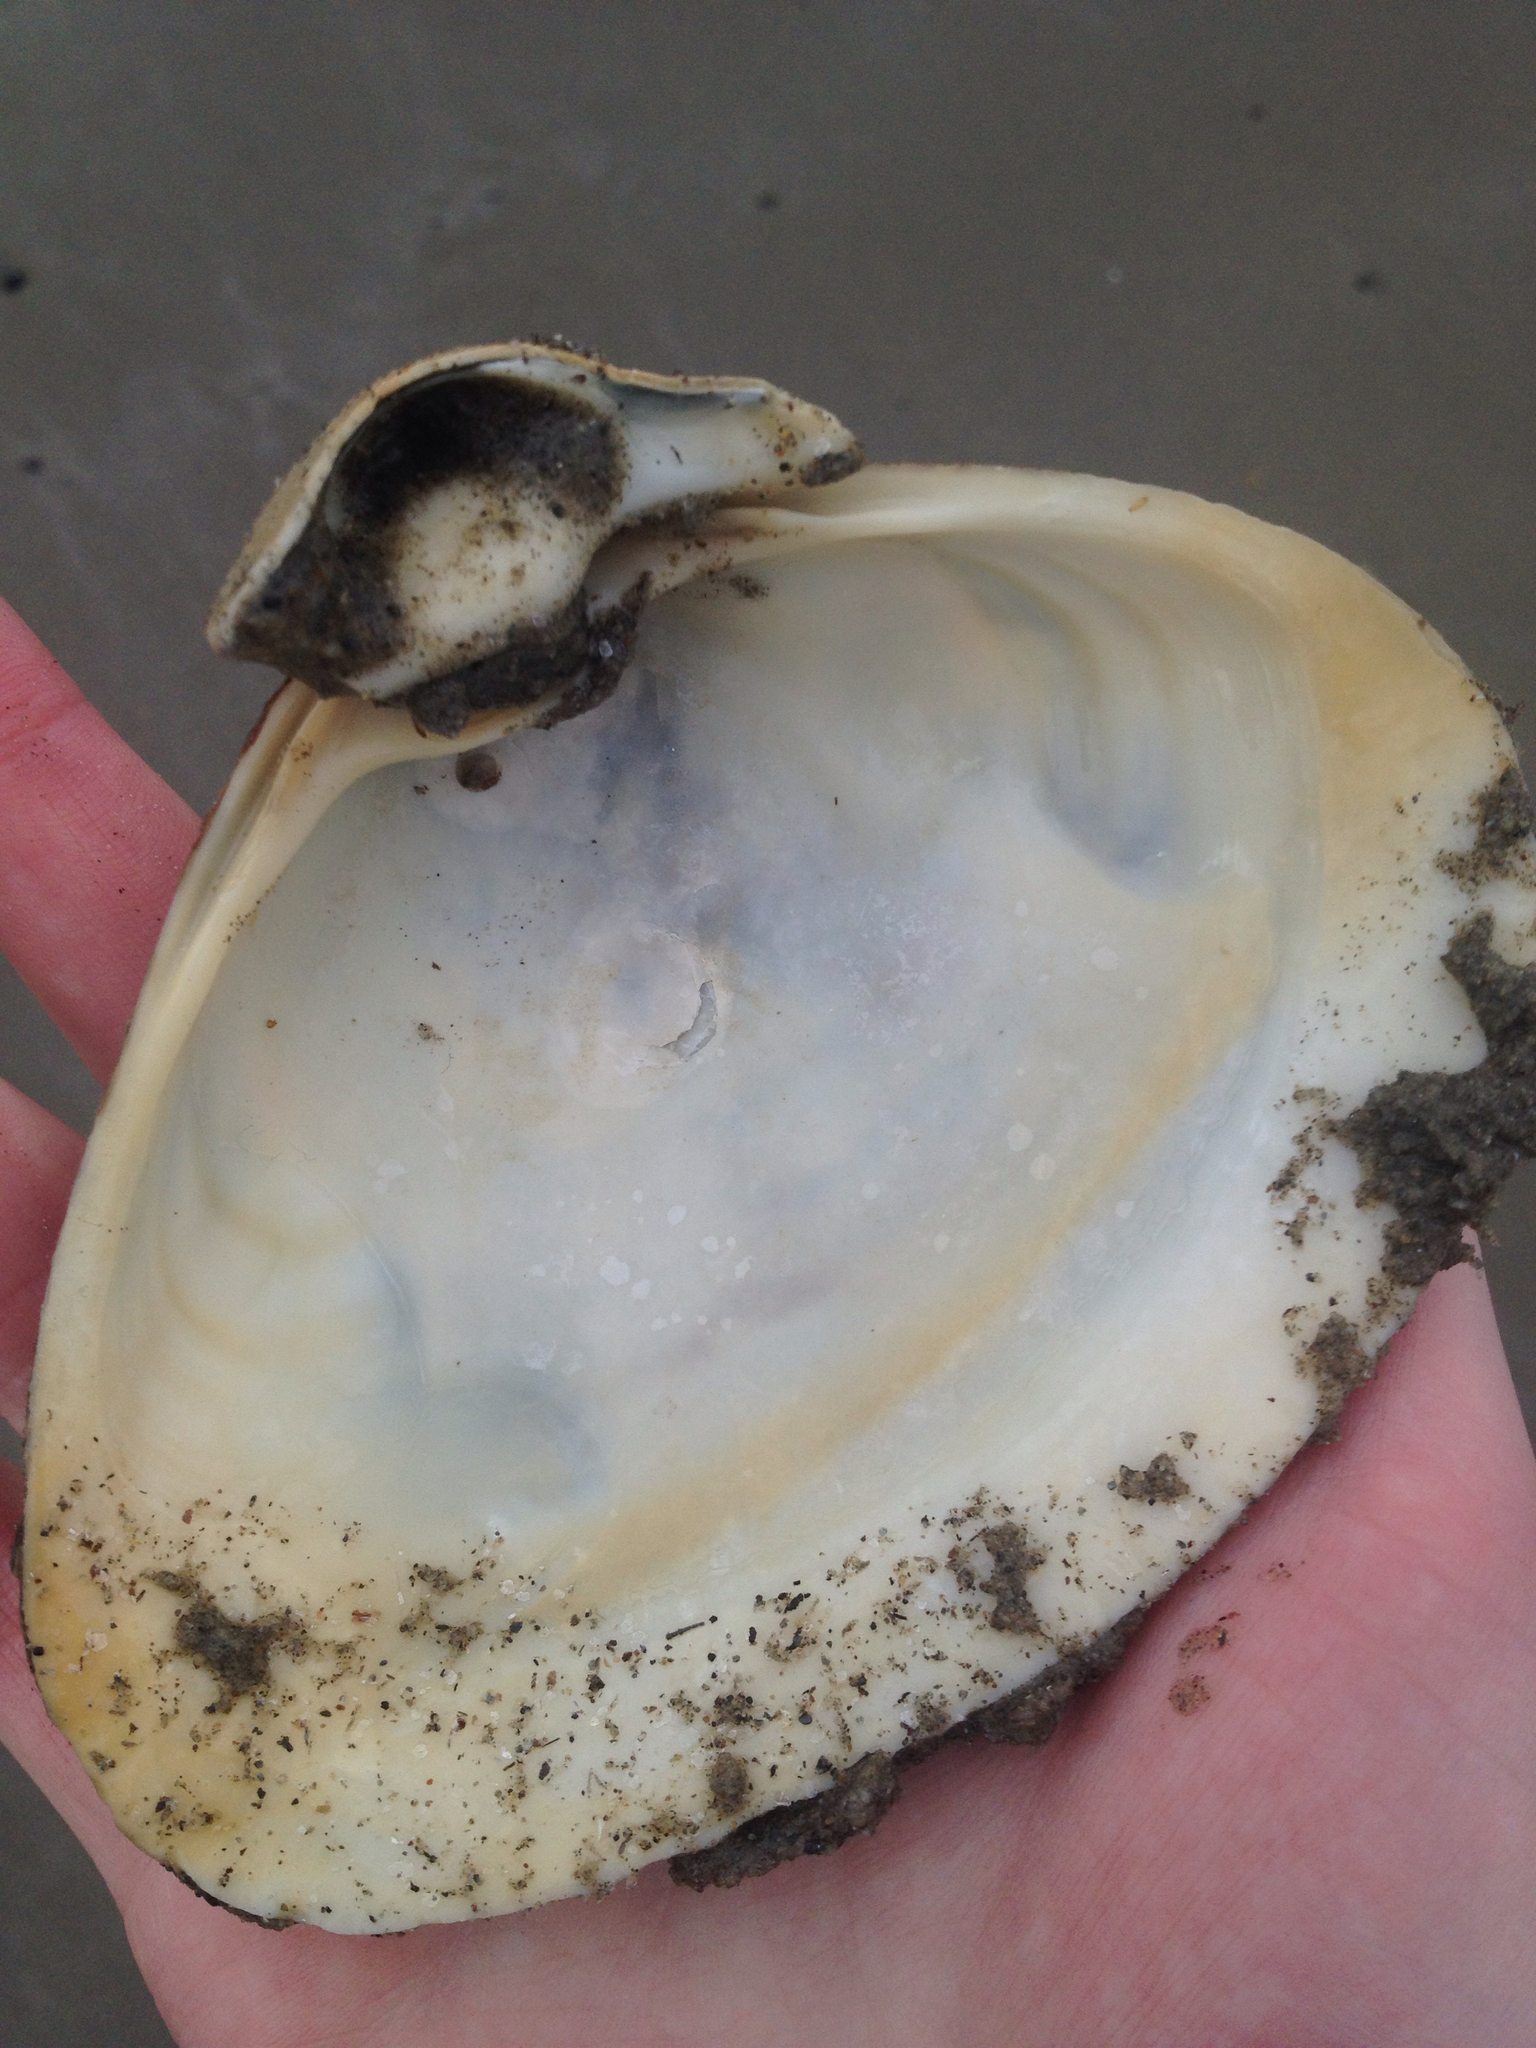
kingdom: Animalia
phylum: Mollusca
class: Bivalvia
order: Venerida
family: Mactridae
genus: Spisula
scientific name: Spisula solidissima
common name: Atlantic surf clam
